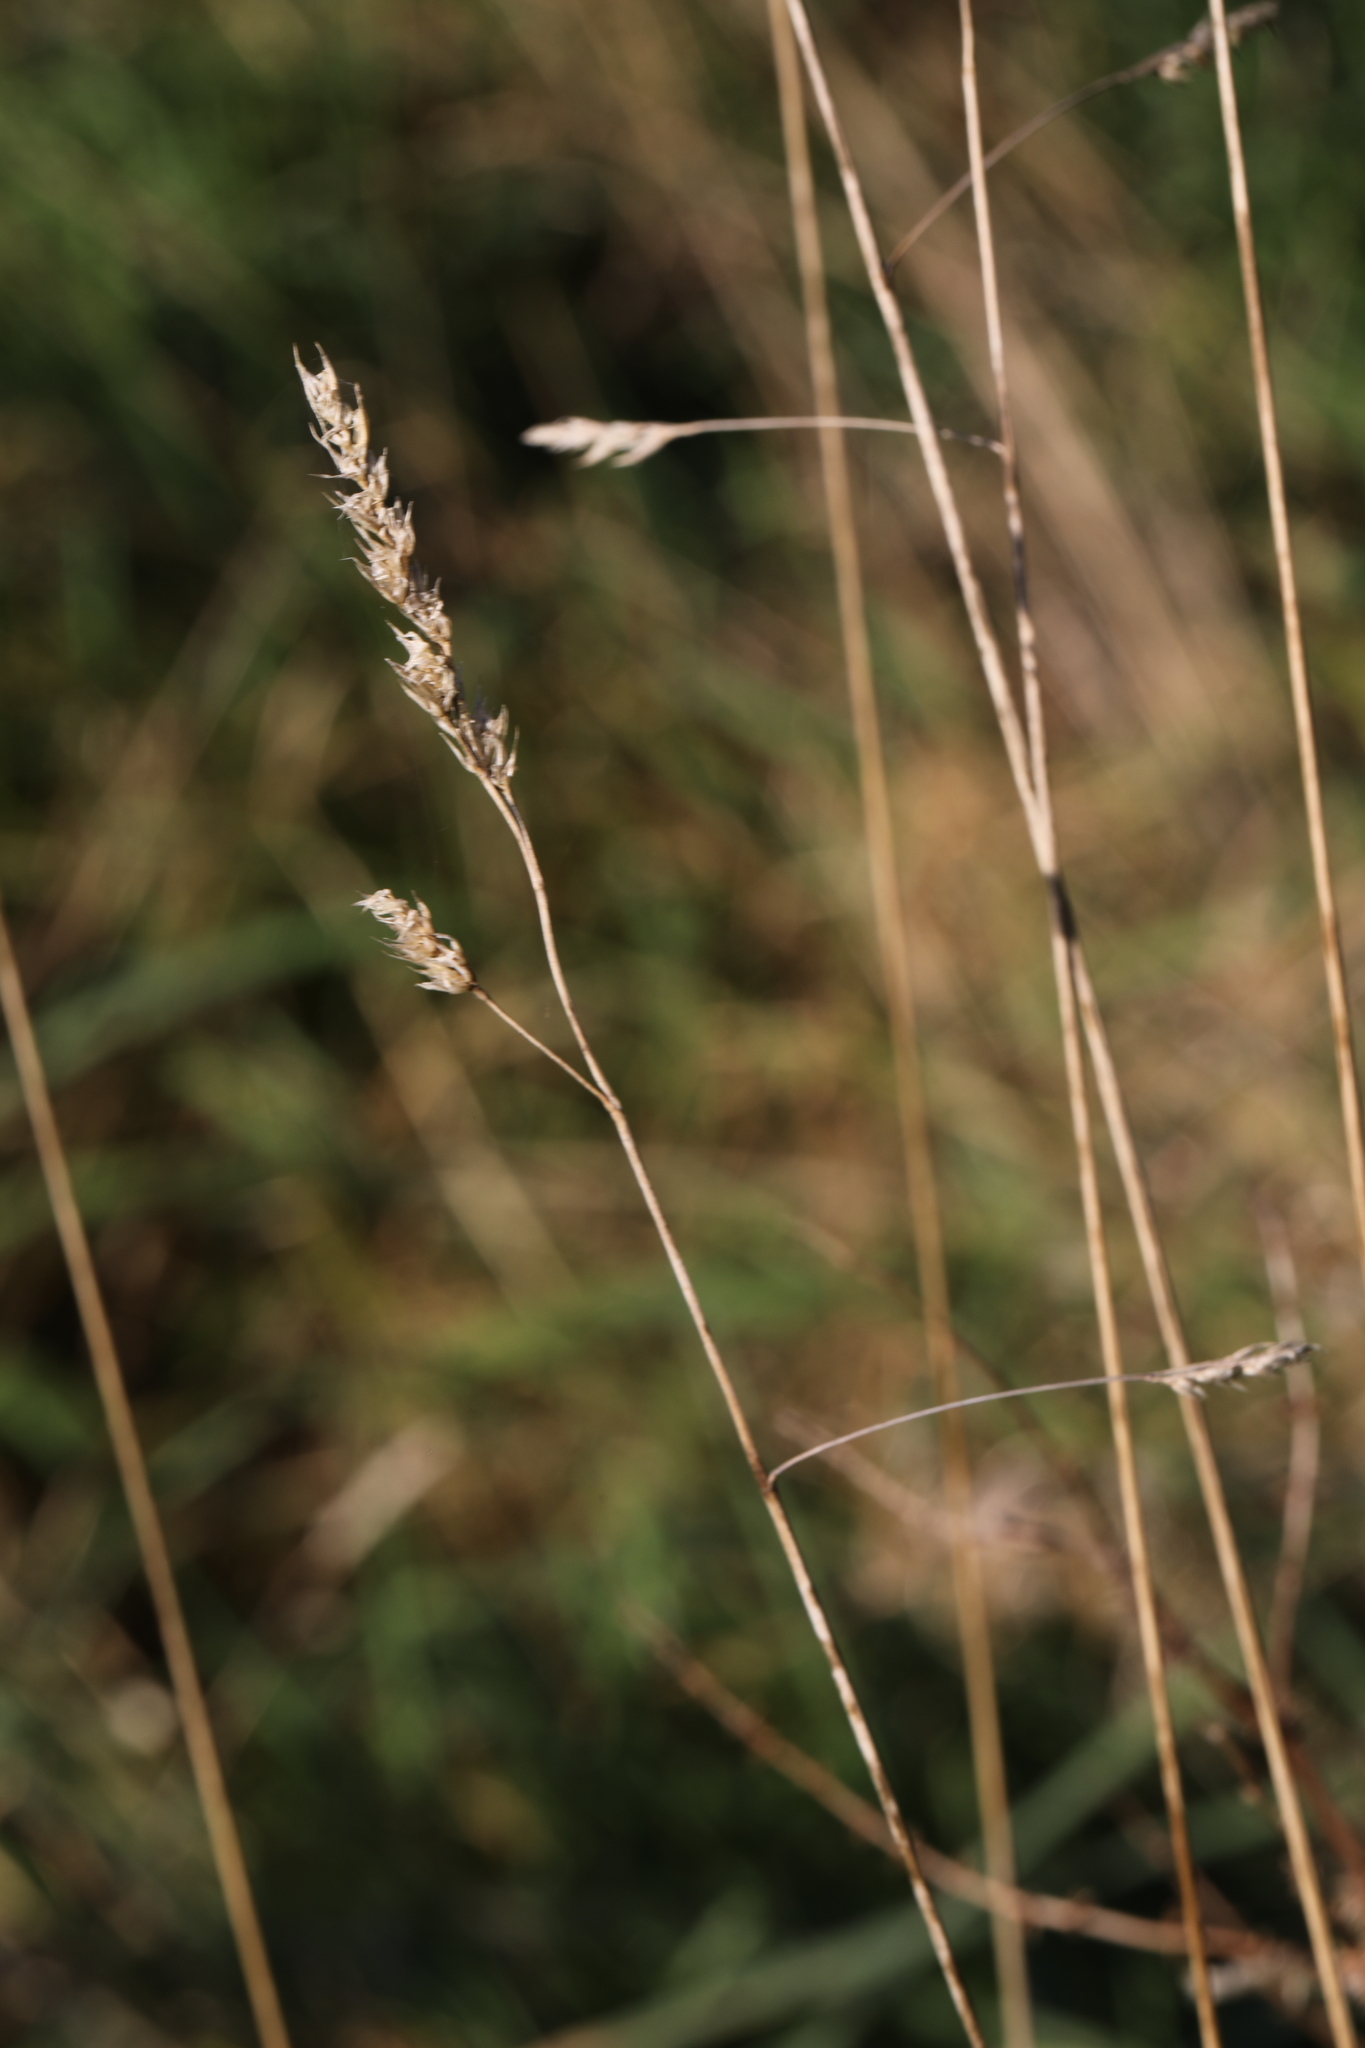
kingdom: Plantae
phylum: Tracheophyta
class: Liliopsida
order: Poales
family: Poaceae
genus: Dactylis
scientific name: Dactylis glomerata
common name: Orchardgrass
